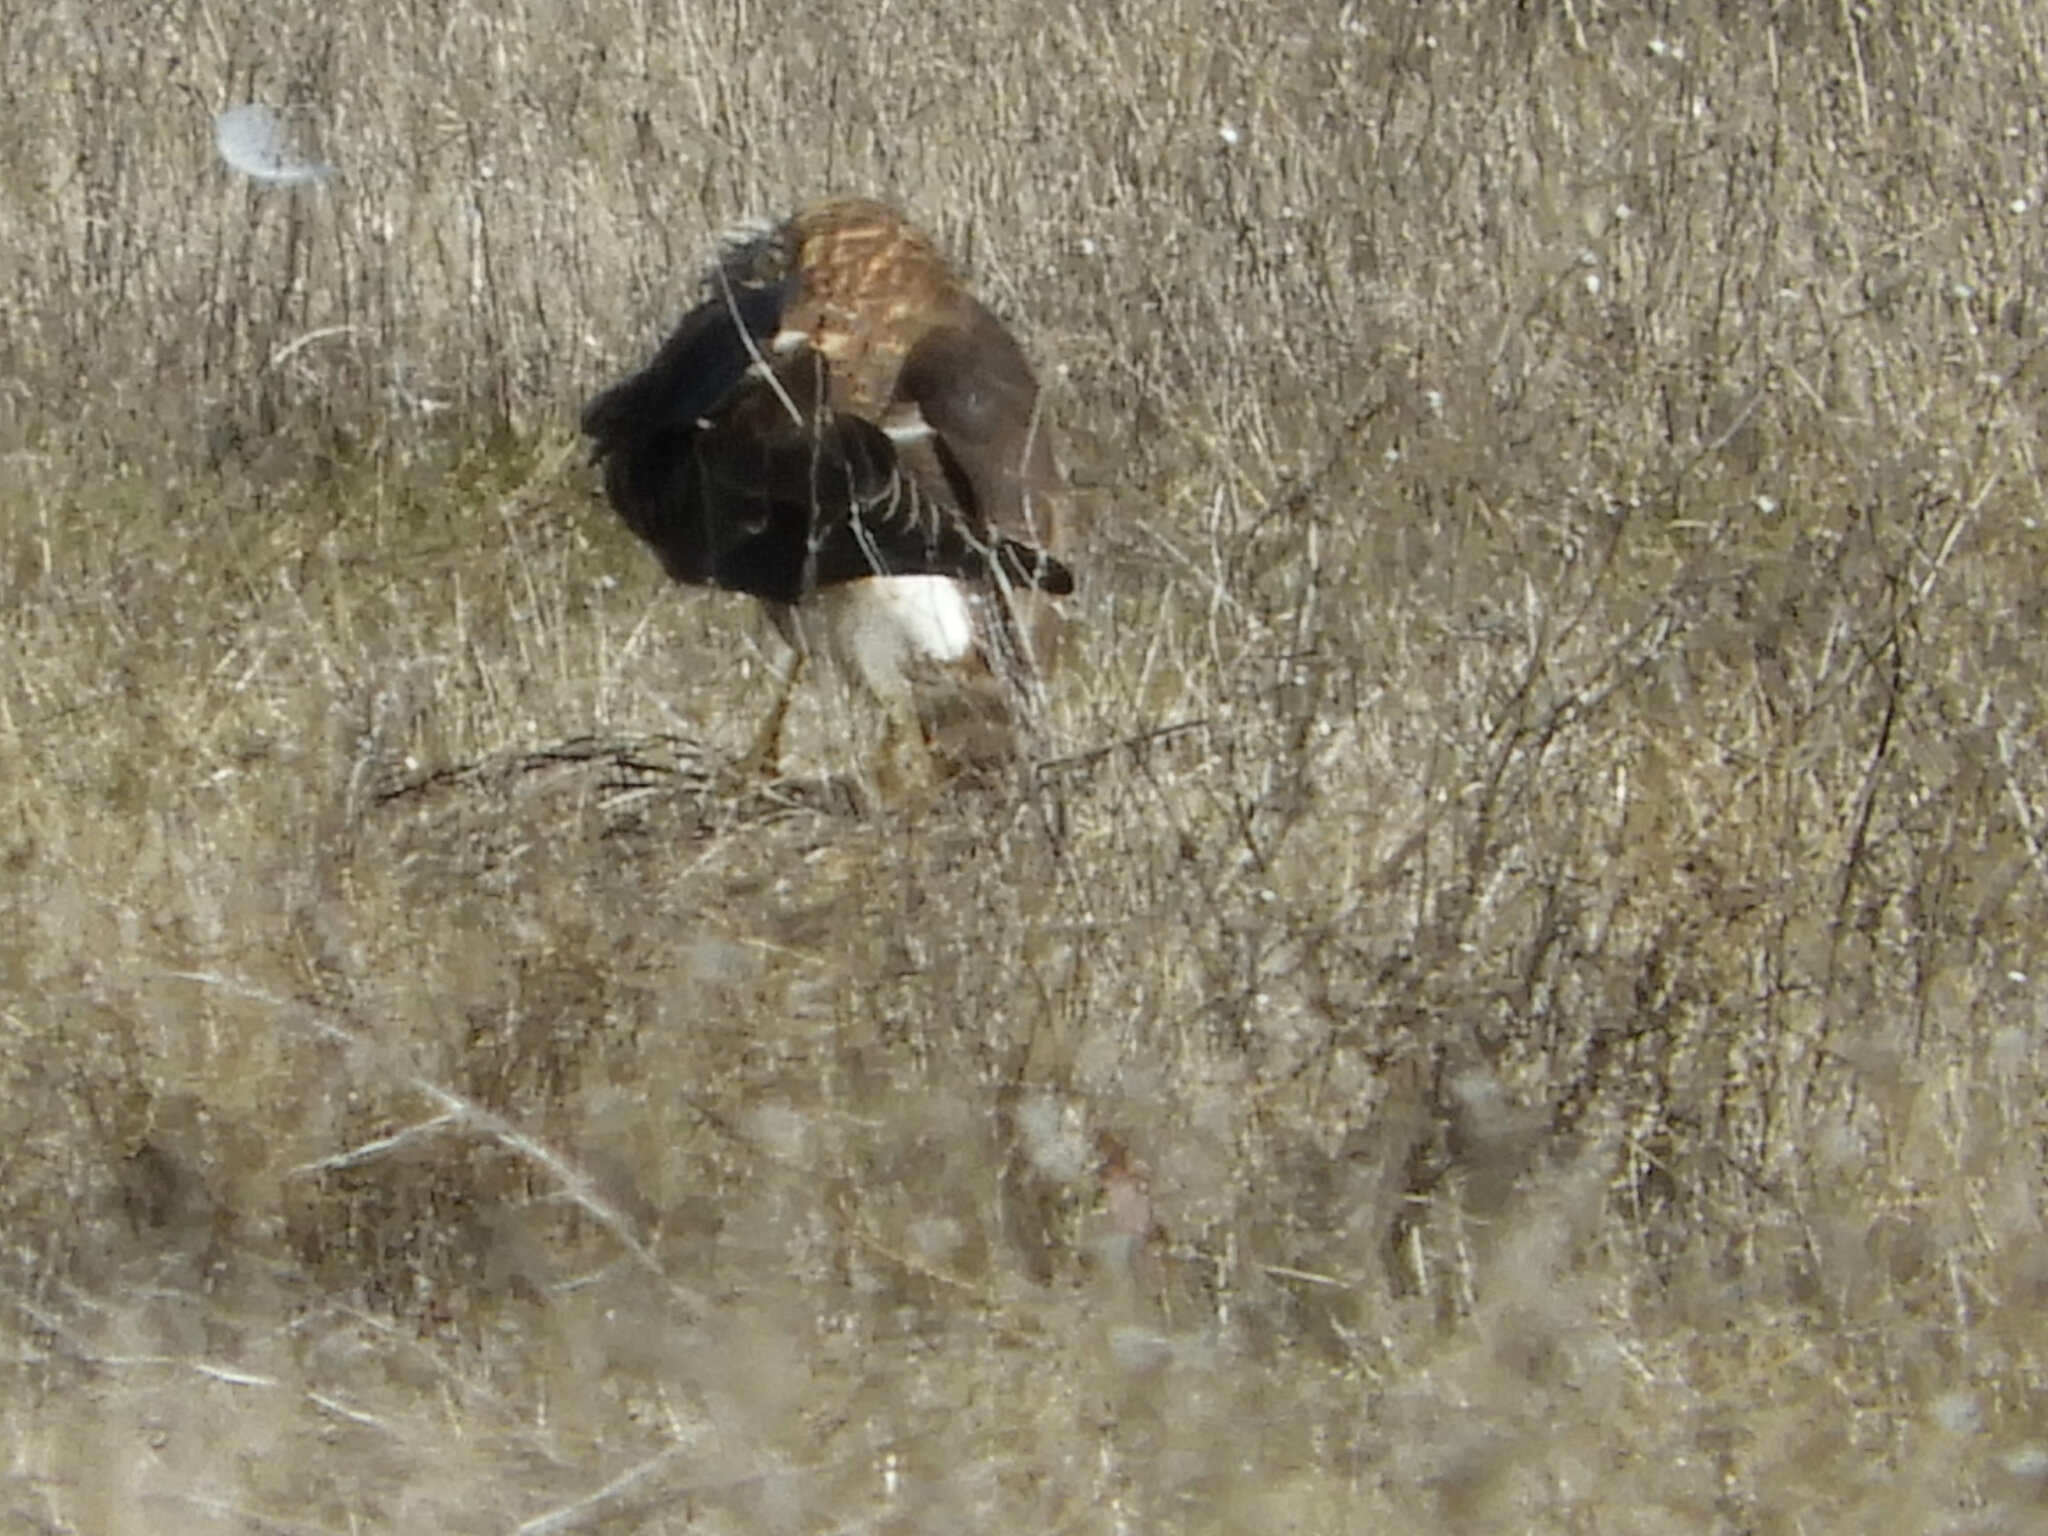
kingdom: Animalia
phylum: Chordata
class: Aves
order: Accipitriformes
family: Accipitridae
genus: Circus
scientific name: Circus cyaneus
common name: Hen harrier
